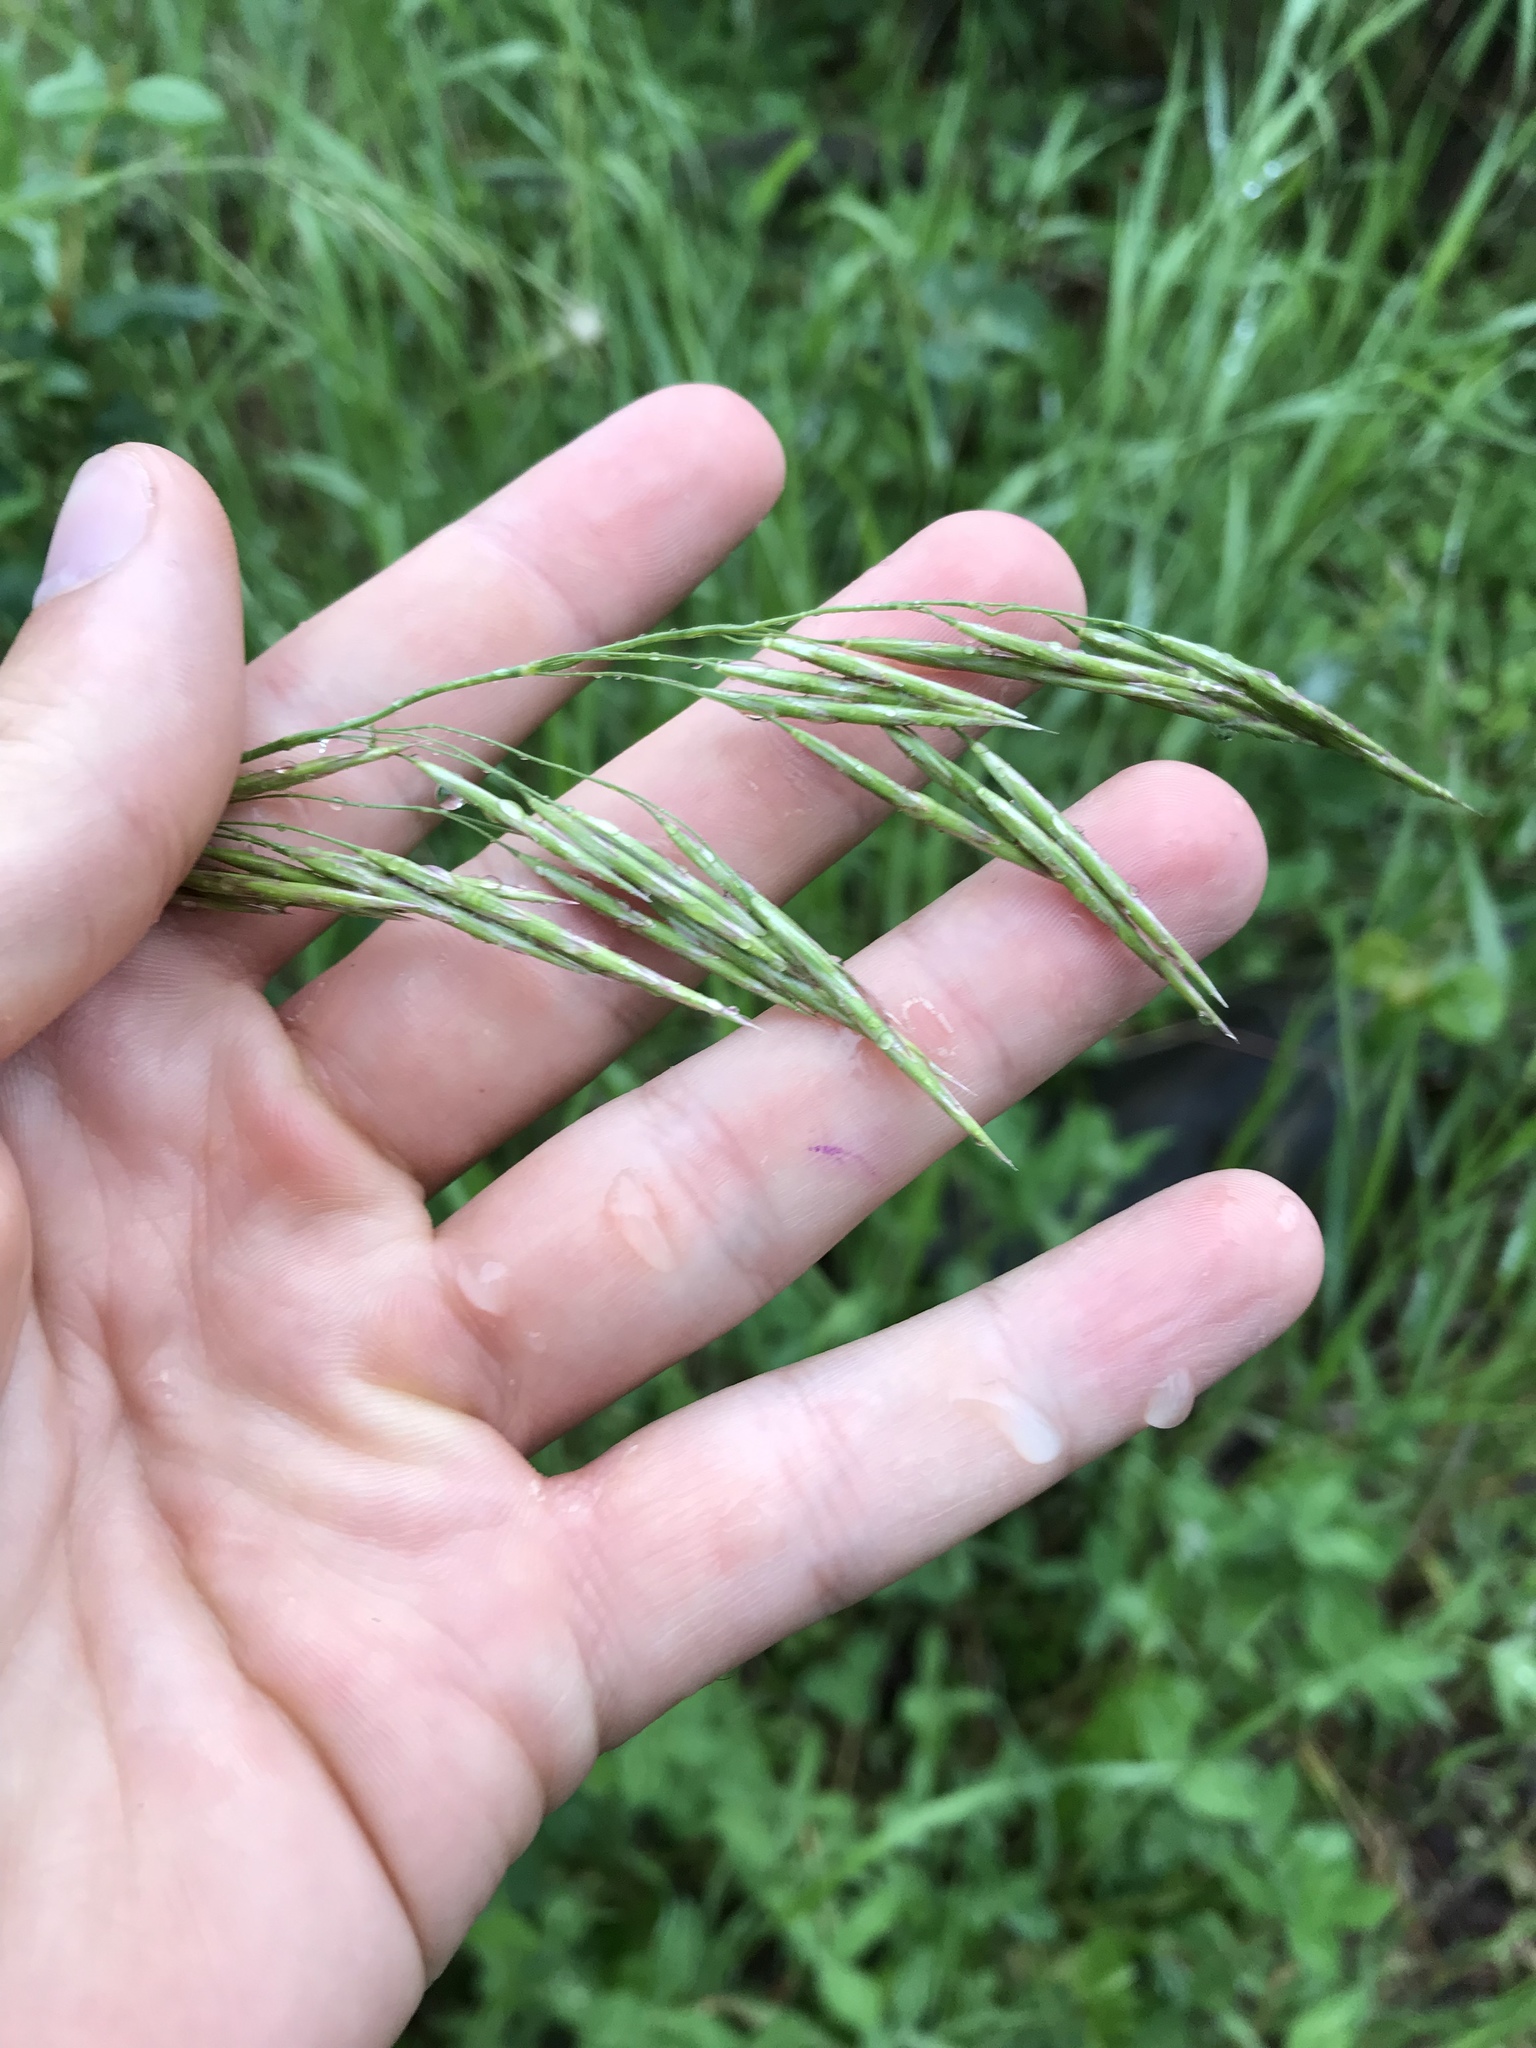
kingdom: Plantae
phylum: Tracheophyta
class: Liliopsida
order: Poales
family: Poaceae
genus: Bromus
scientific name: Bromus inermis
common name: Smooth brome
